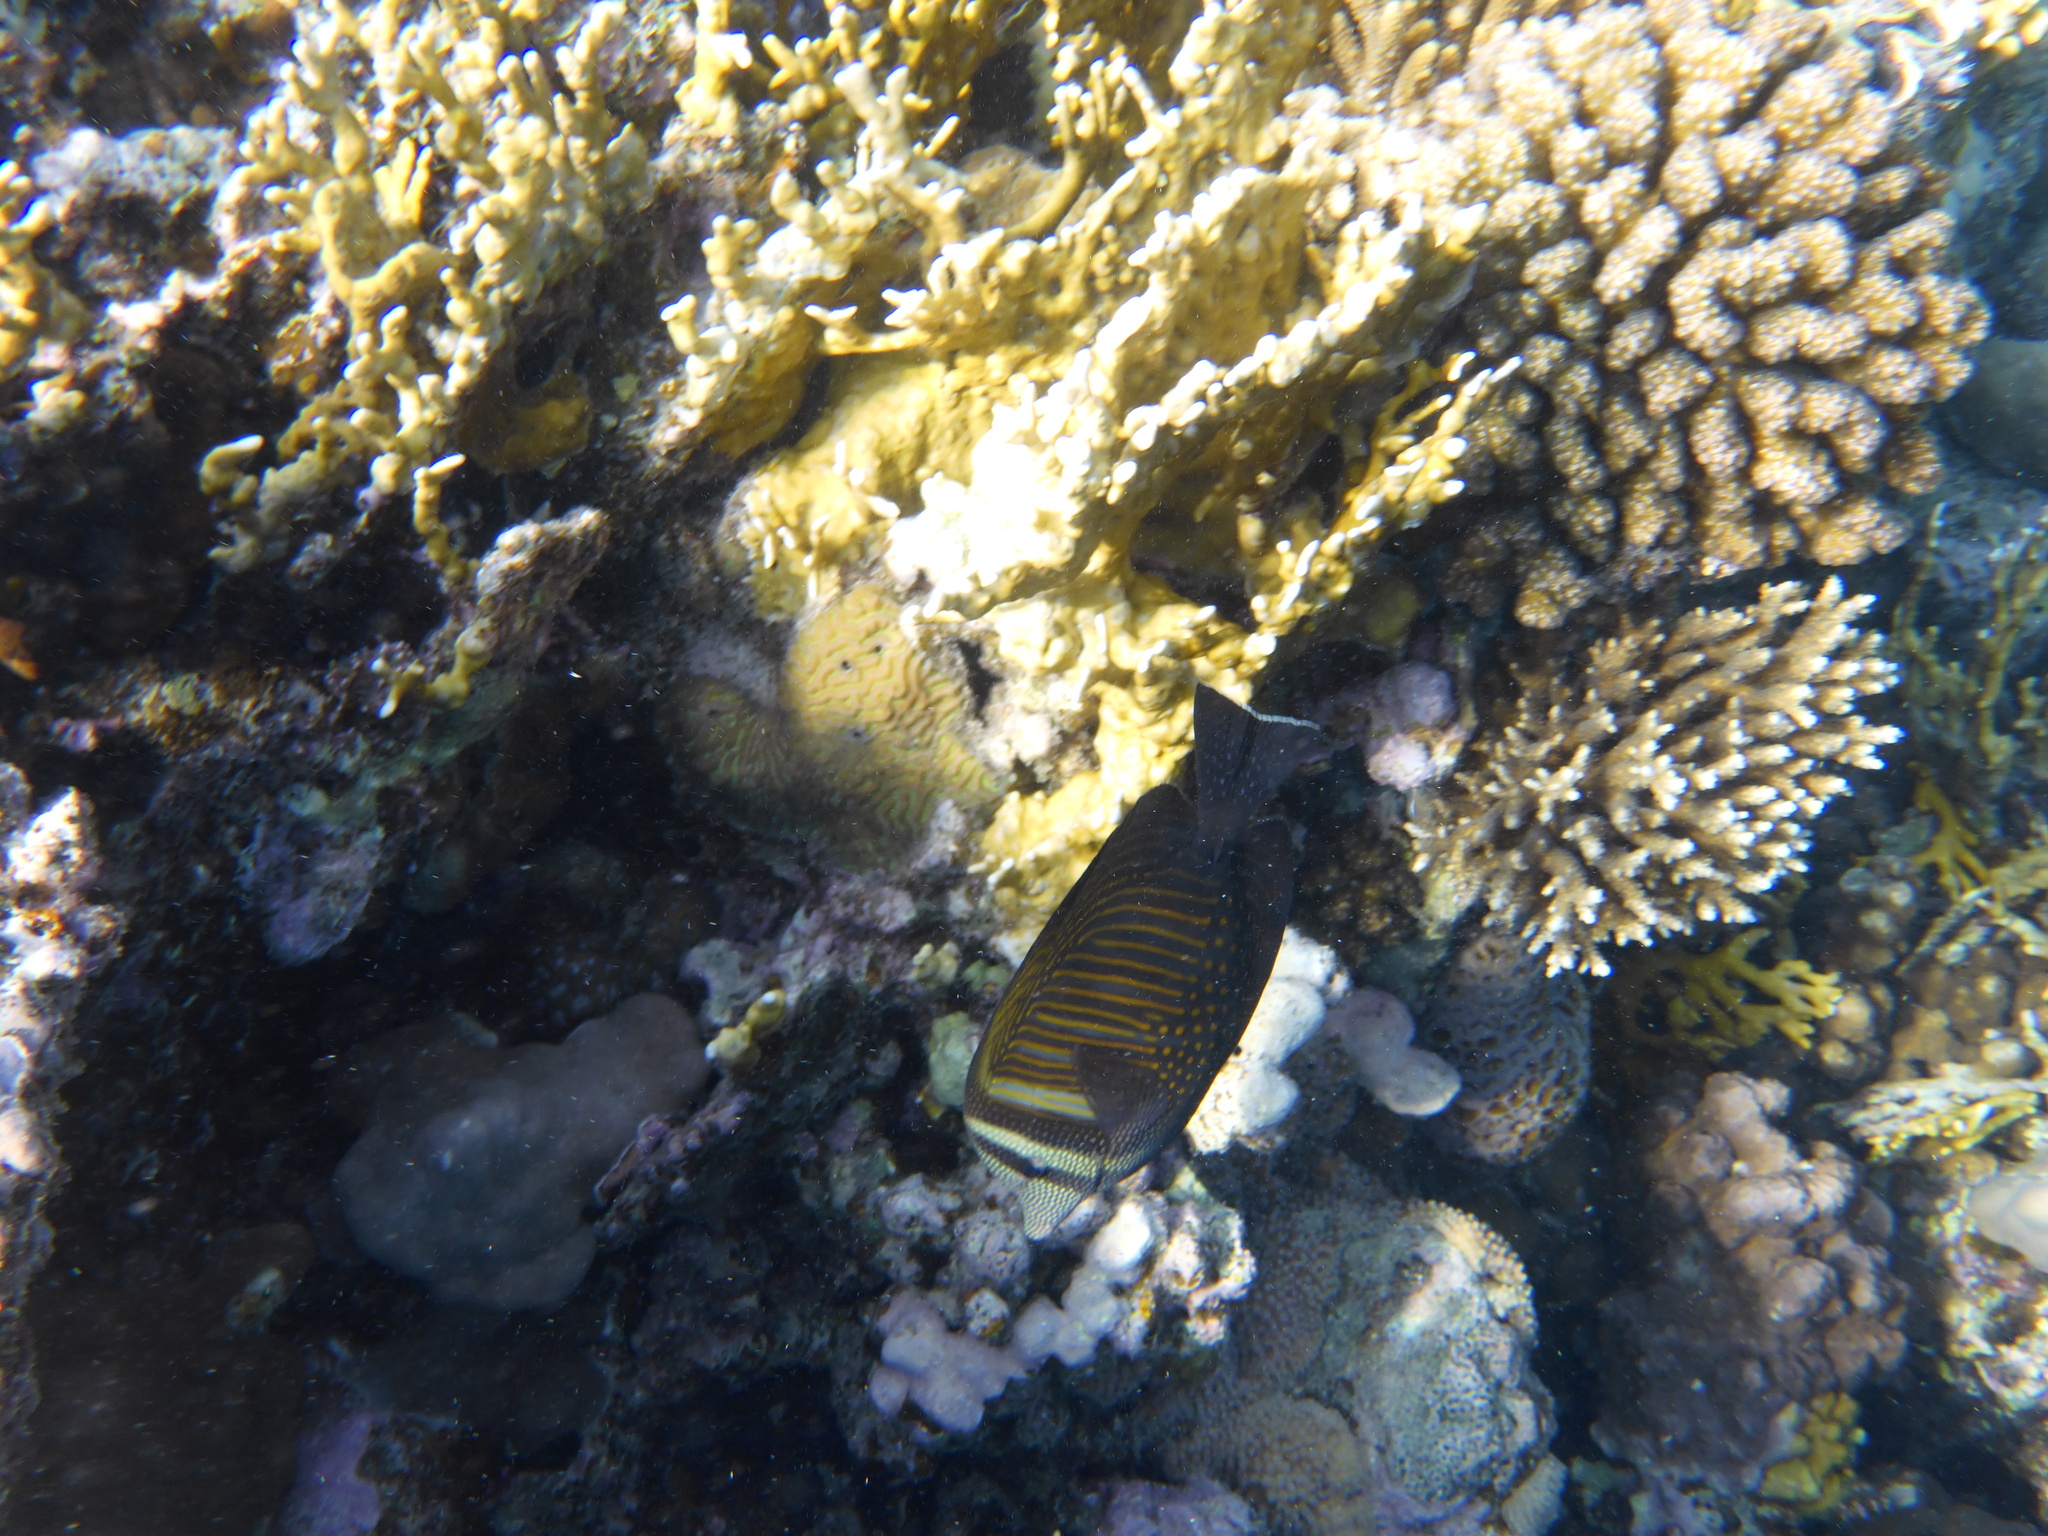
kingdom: Animalia
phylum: Chordata
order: Perciformes
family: Acanthuridae
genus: Zebrasoma
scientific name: Zebrasoma desjardinii
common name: Desjardin's sailfin tang
